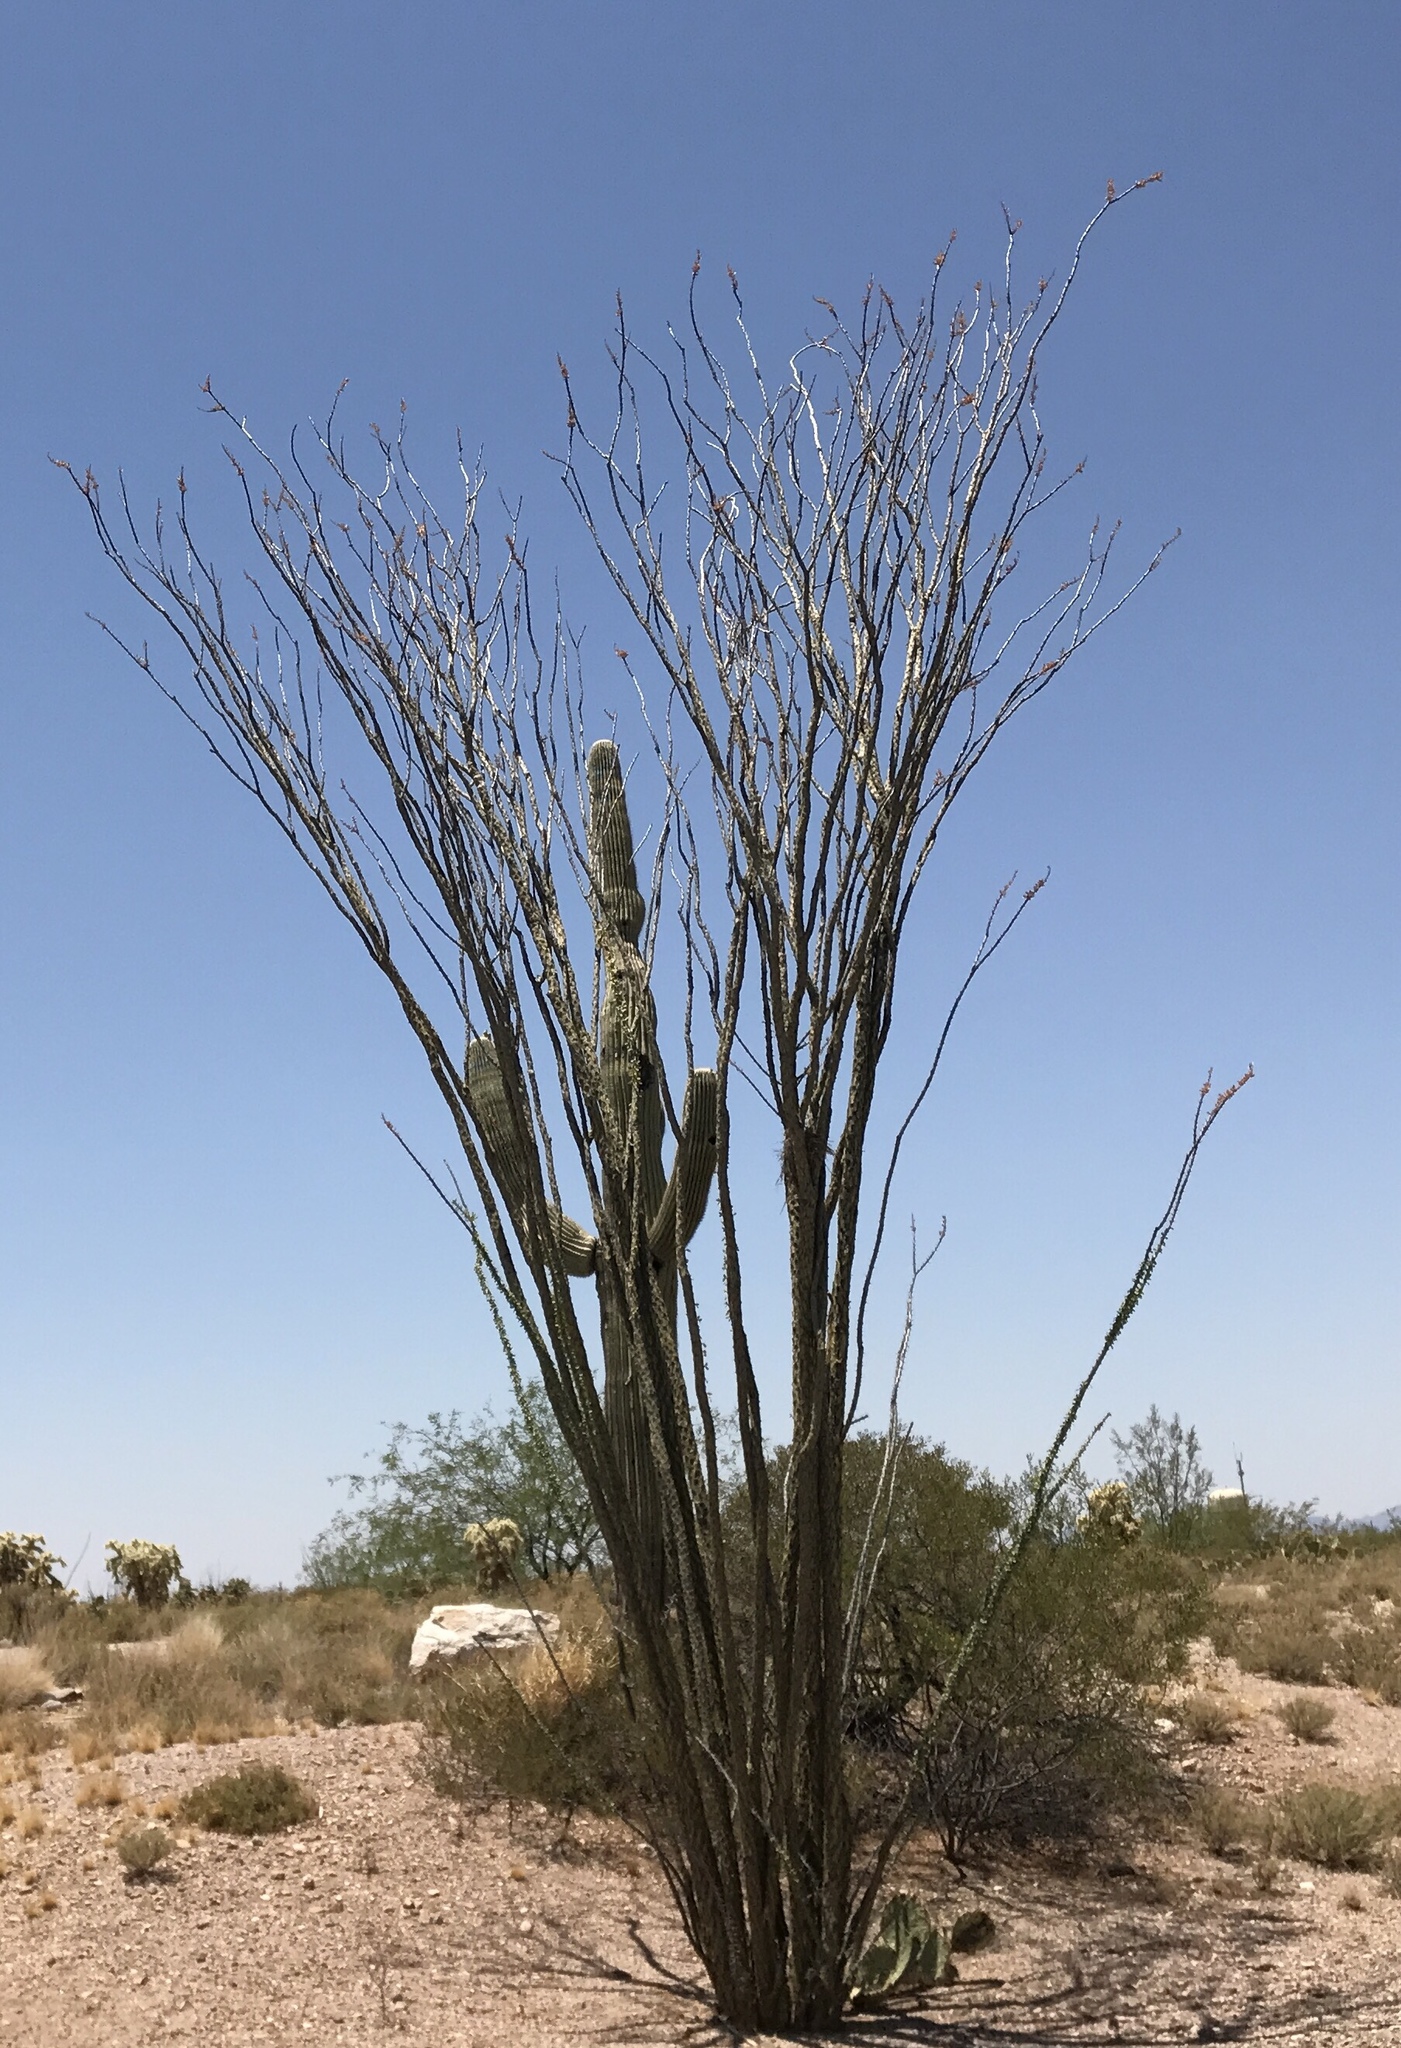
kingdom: Plantae
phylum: Tracheophyta
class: Magnoliopsida
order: Ericales
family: Fouquieriaceae
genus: Fouquieria
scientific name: Fouquieria splendens
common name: Vine-cactus
